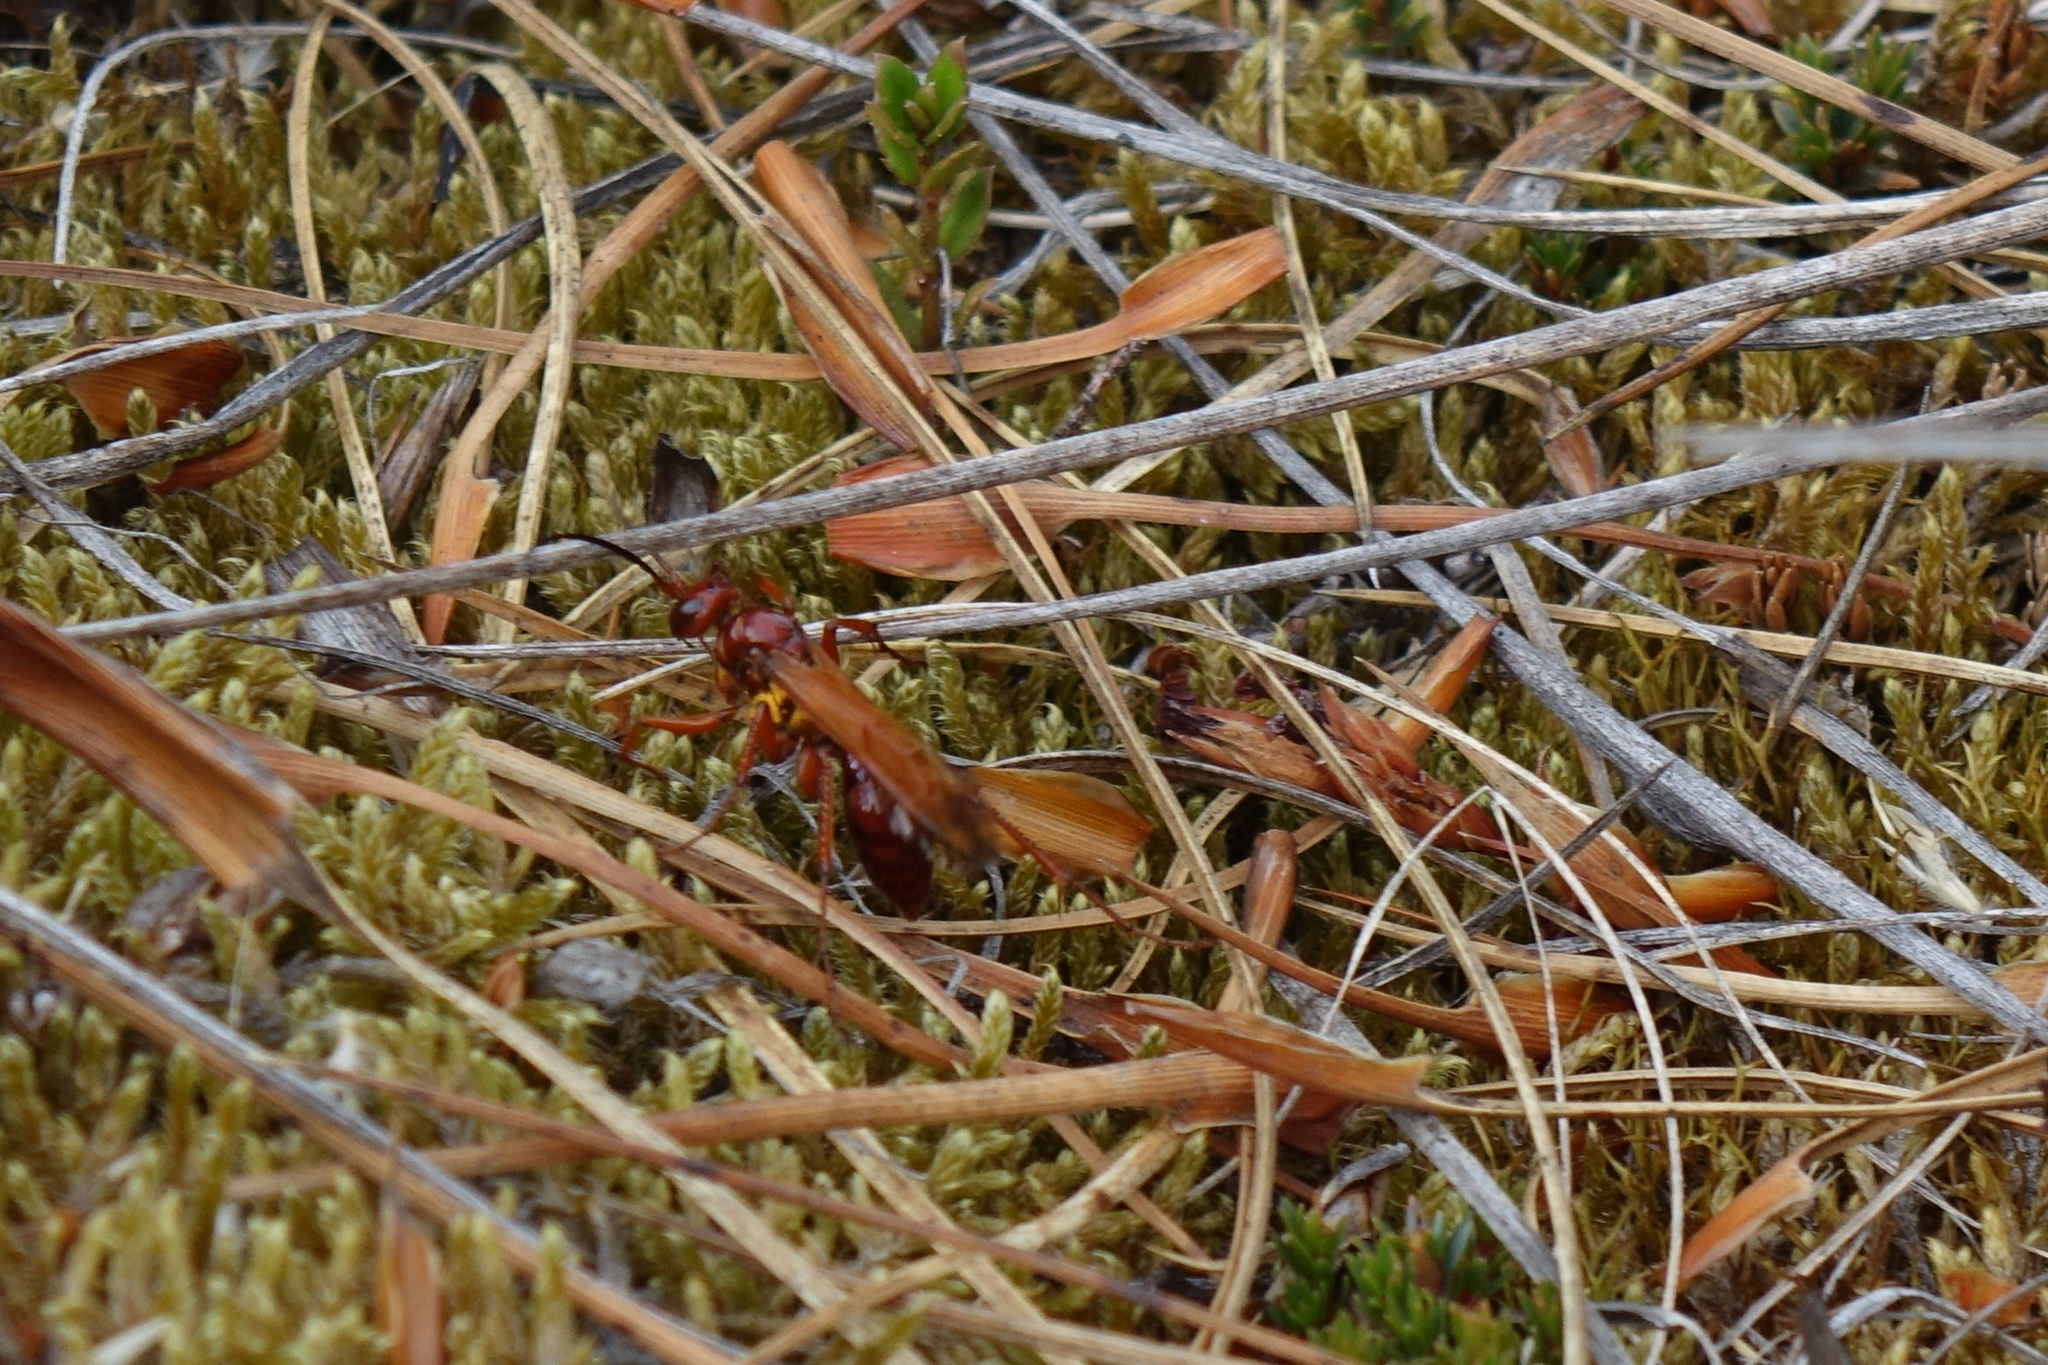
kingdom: Animalia
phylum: Arthropoda
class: Insecta
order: Hymenoptera
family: Pompilidae
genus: Sphictostethus
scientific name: Sphictostethus nitidus
